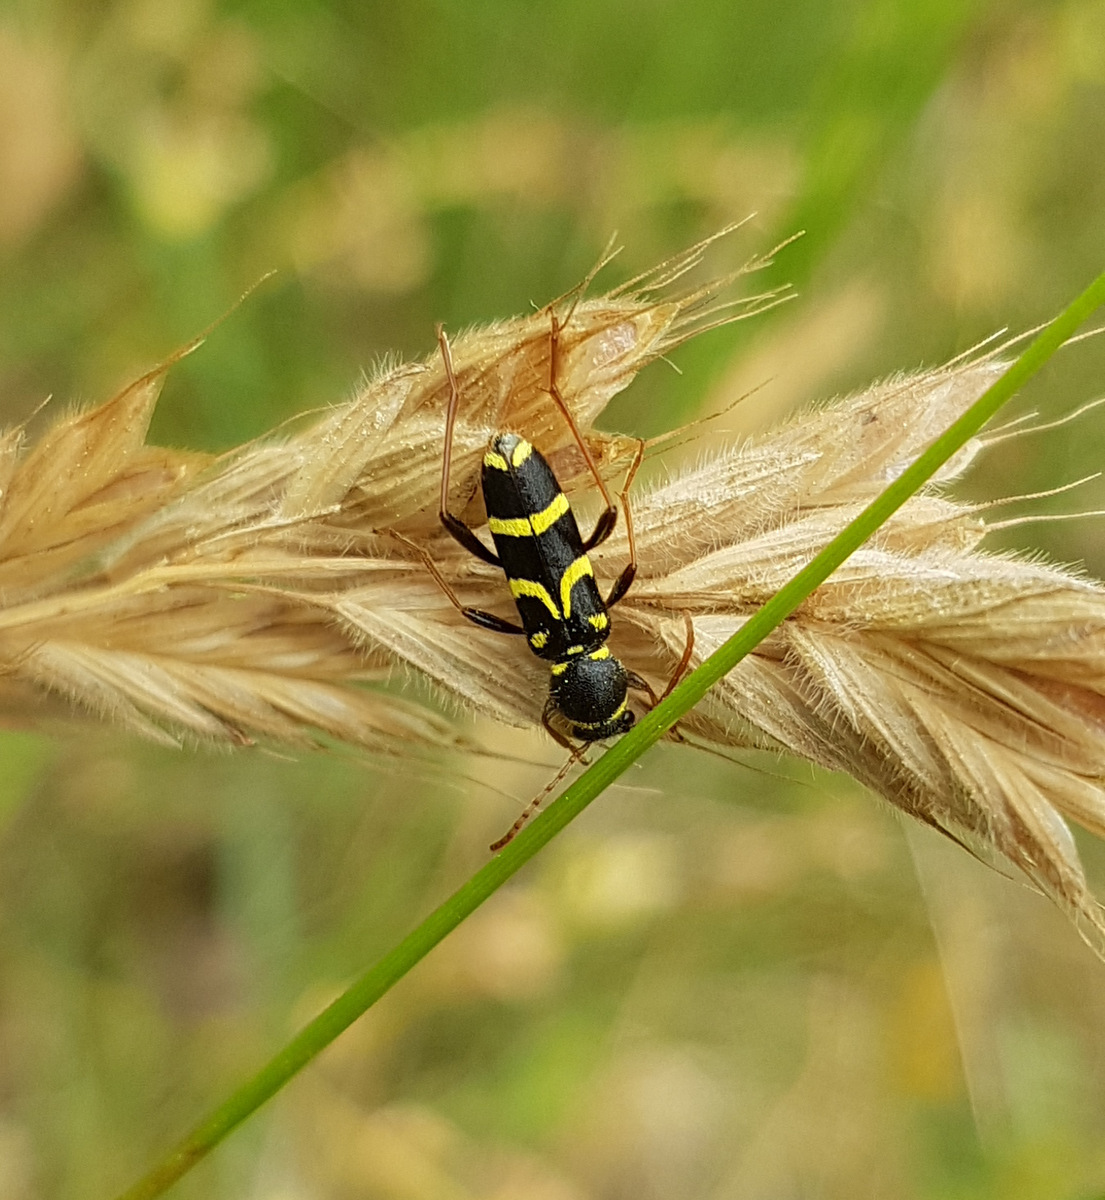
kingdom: Animalia
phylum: Arthropoda
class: Insecta
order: Coleoptera
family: Cerambycidae
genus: Clytus
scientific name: Clytus rhamni
